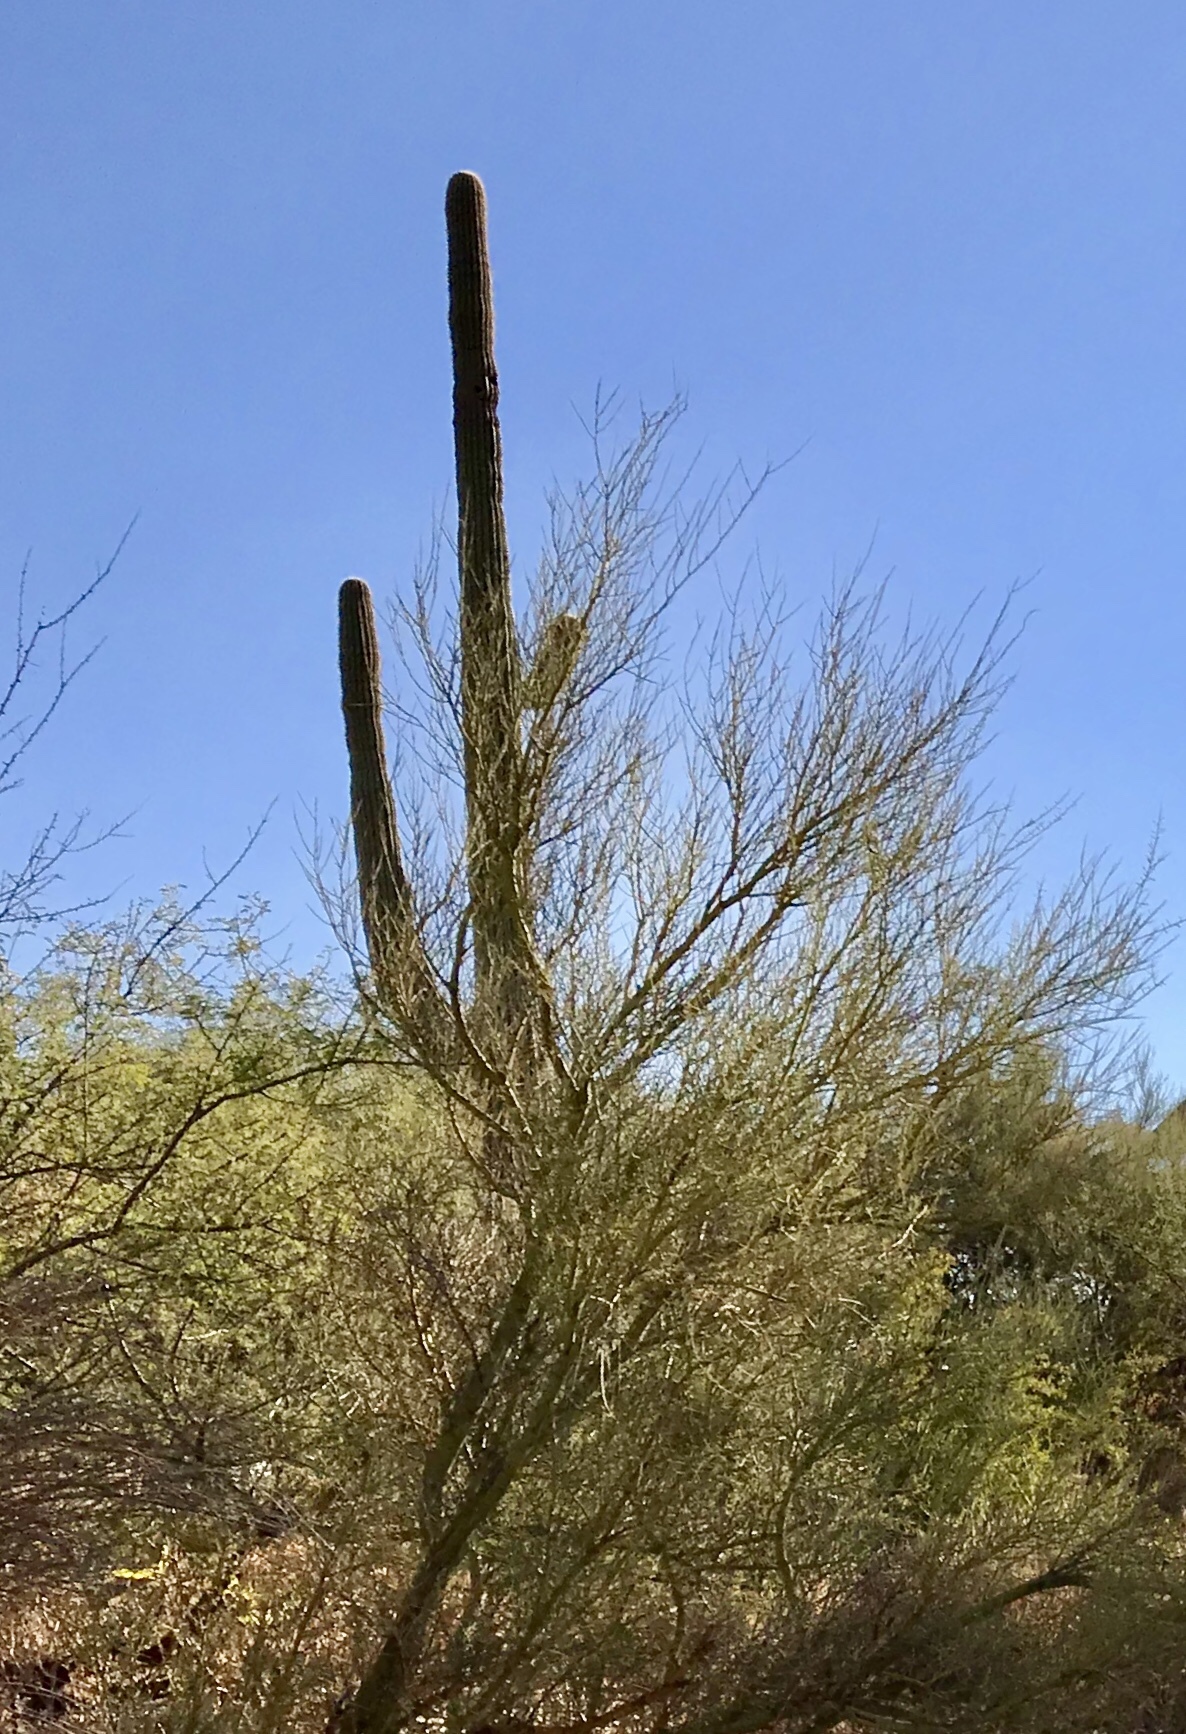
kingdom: Plantae
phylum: Tracheophyta
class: Magnoliopsida
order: Caryophyllales
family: Cactaceae
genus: Carnegiea
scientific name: Carnegiea gigantea
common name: Saguaro
